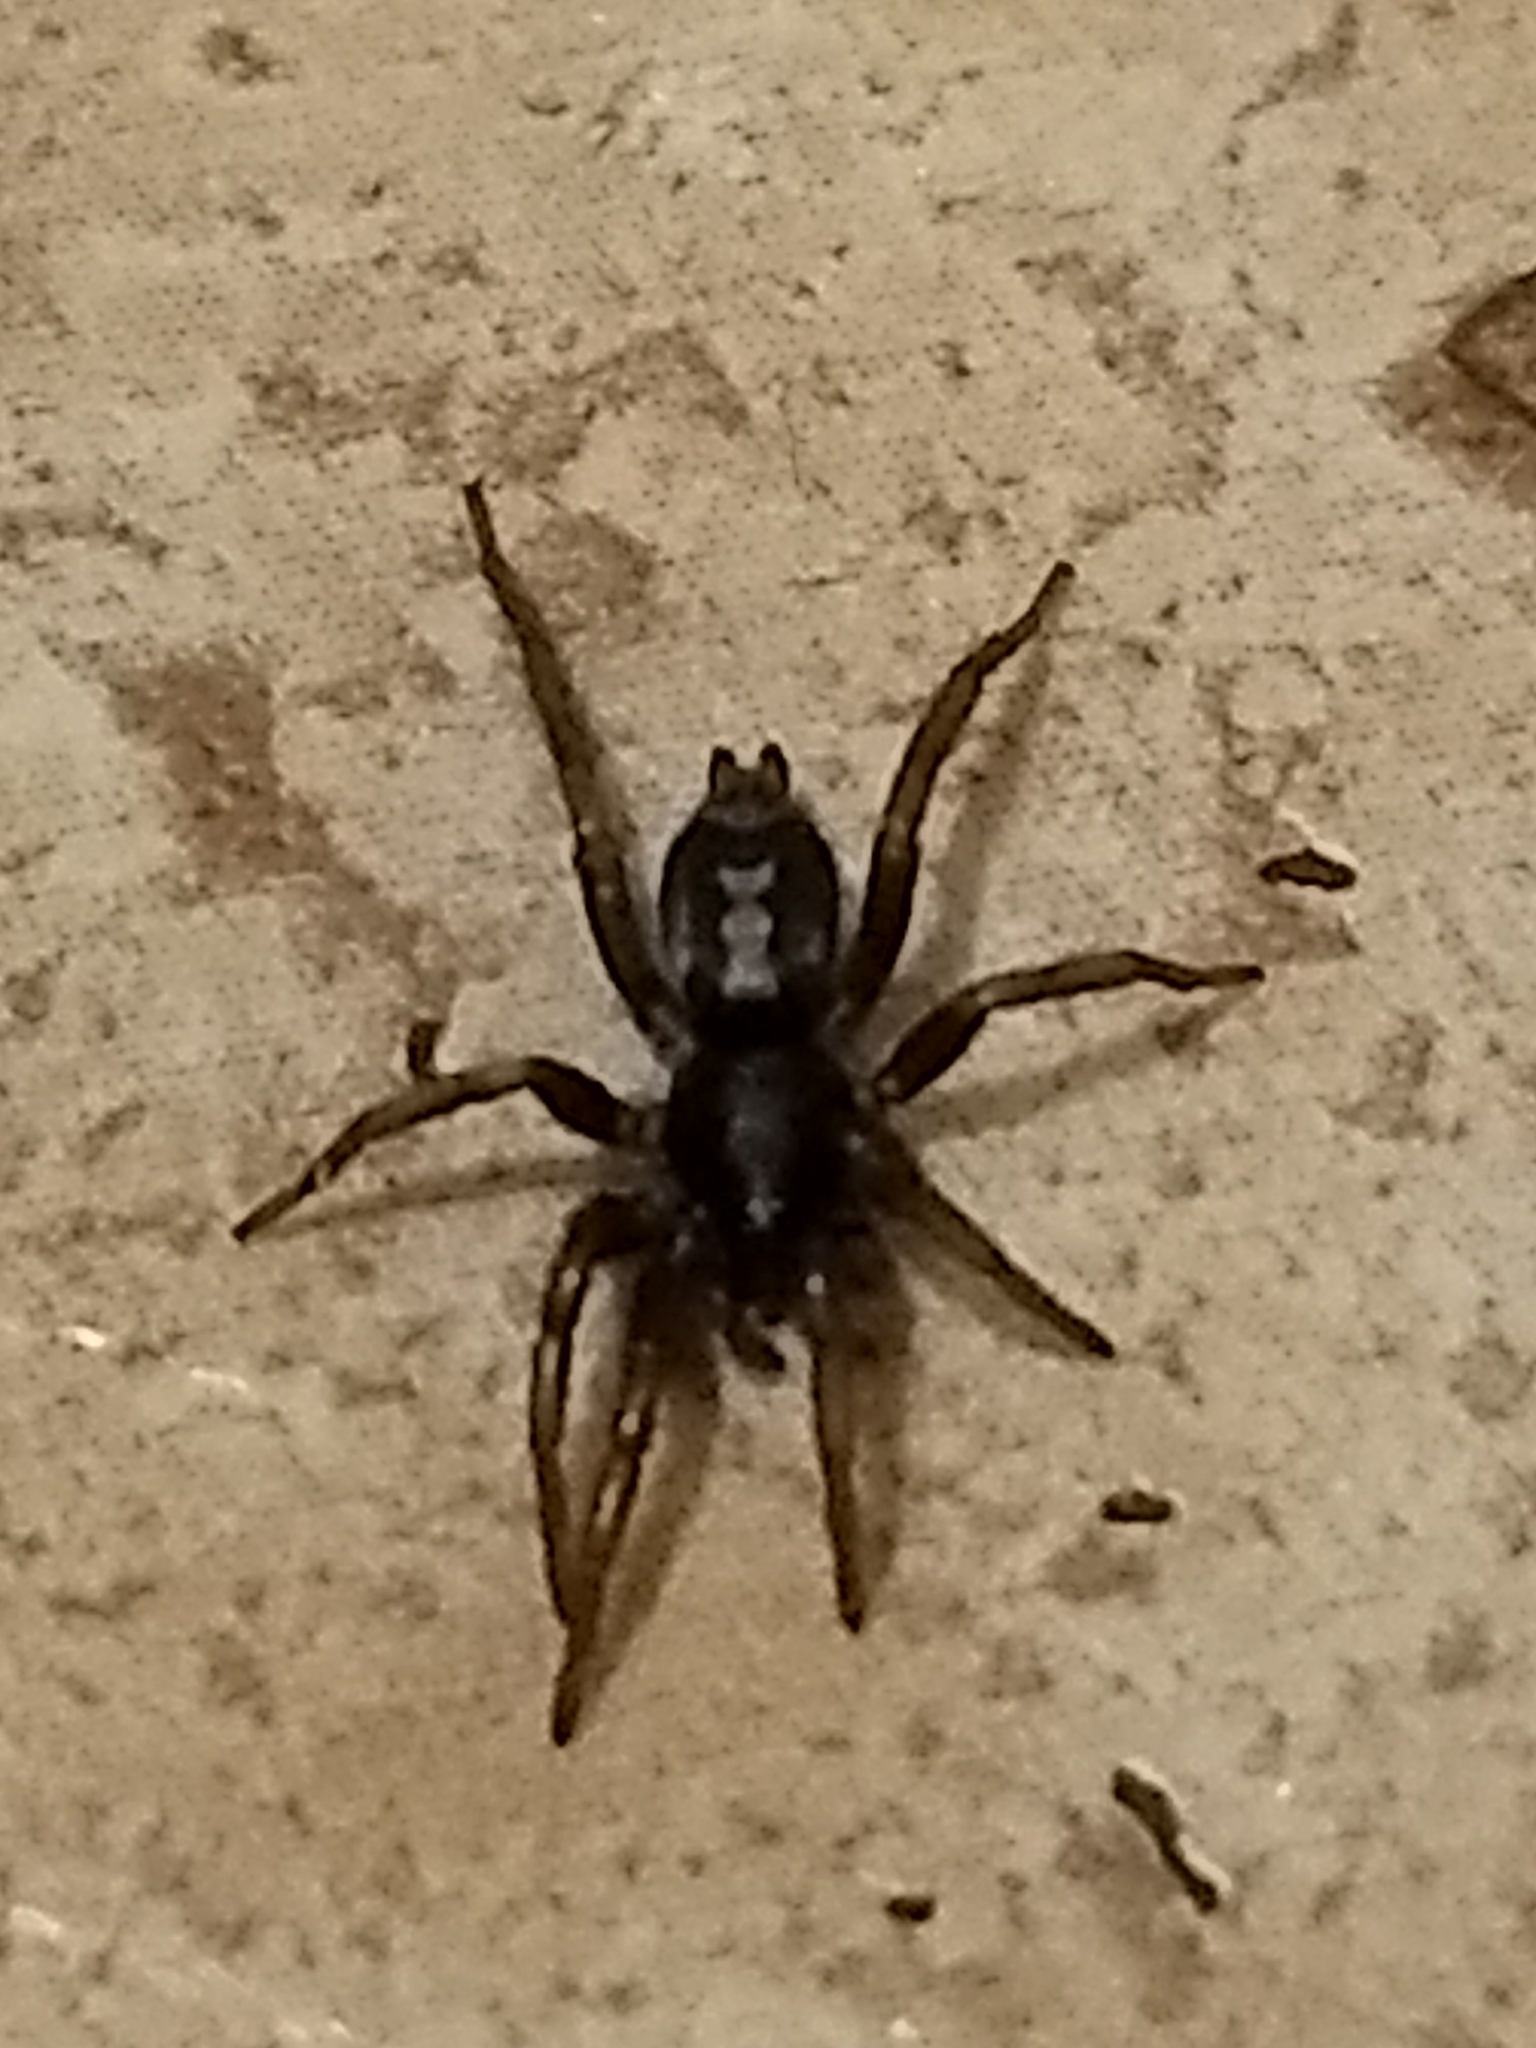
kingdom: Animalia
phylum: Arthropoda
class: Arachnida
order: Araneae
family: Gnaphosidae
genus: Herpyllus
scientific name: Herpyllus ecclesiasticus
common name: Eastern parson spider
